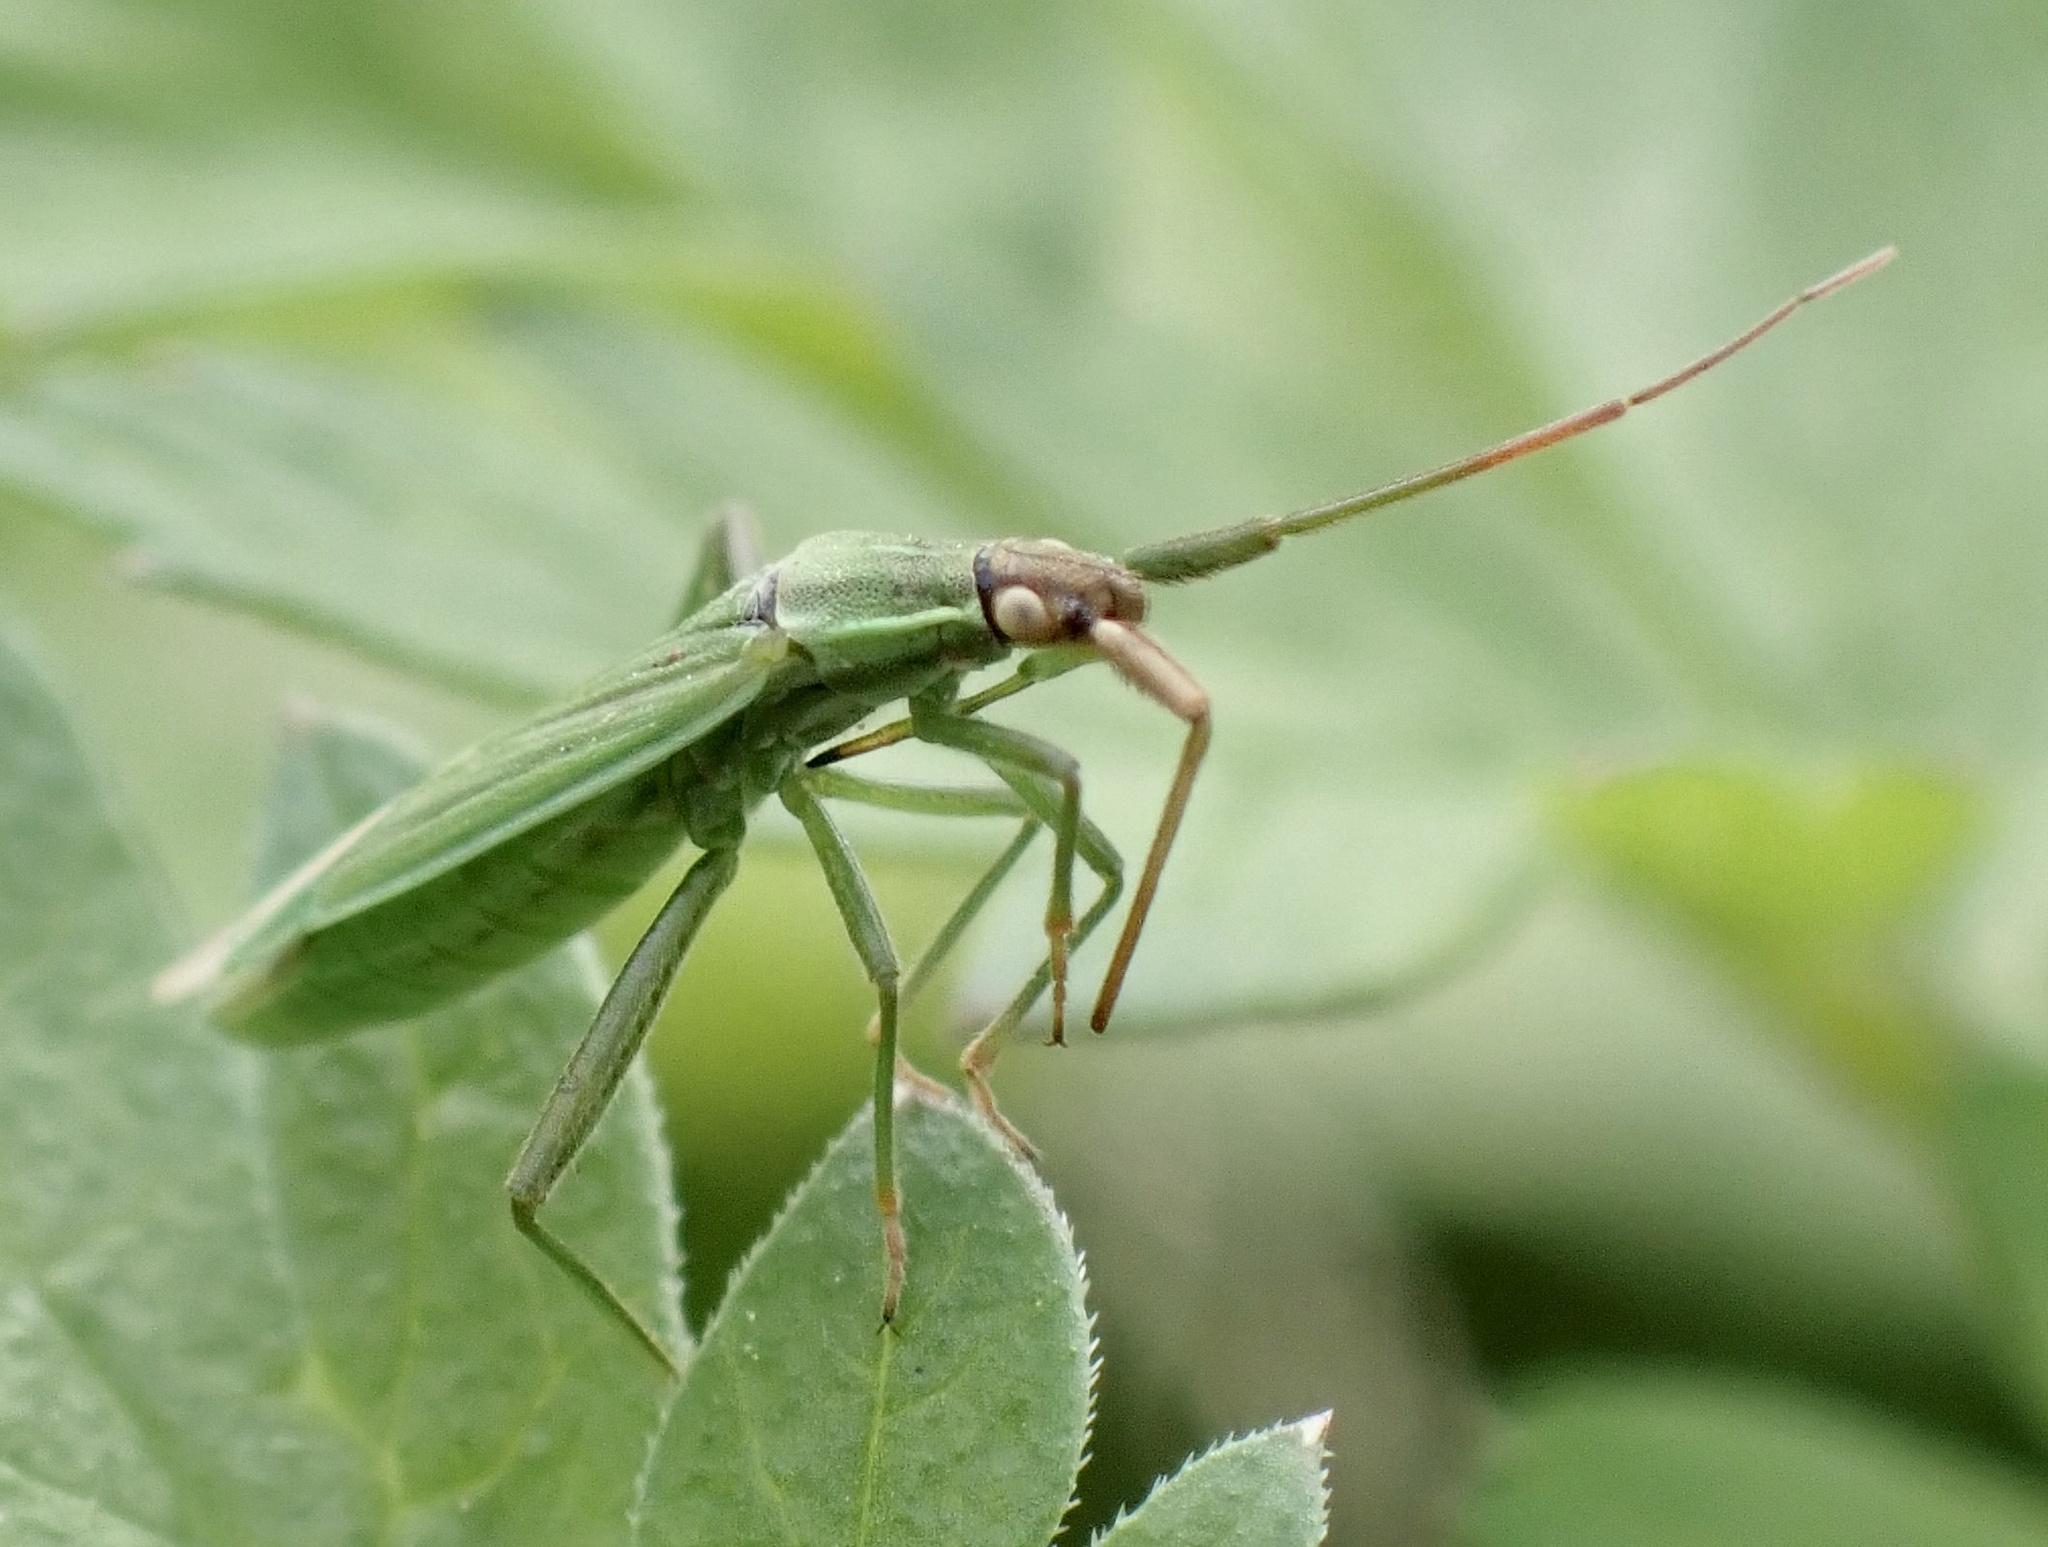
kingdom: Animalia
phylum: Arthropoda
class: Insecta
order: Hemiptera
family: Miridae
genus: Stenodema
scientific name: Stenodema calcarata
